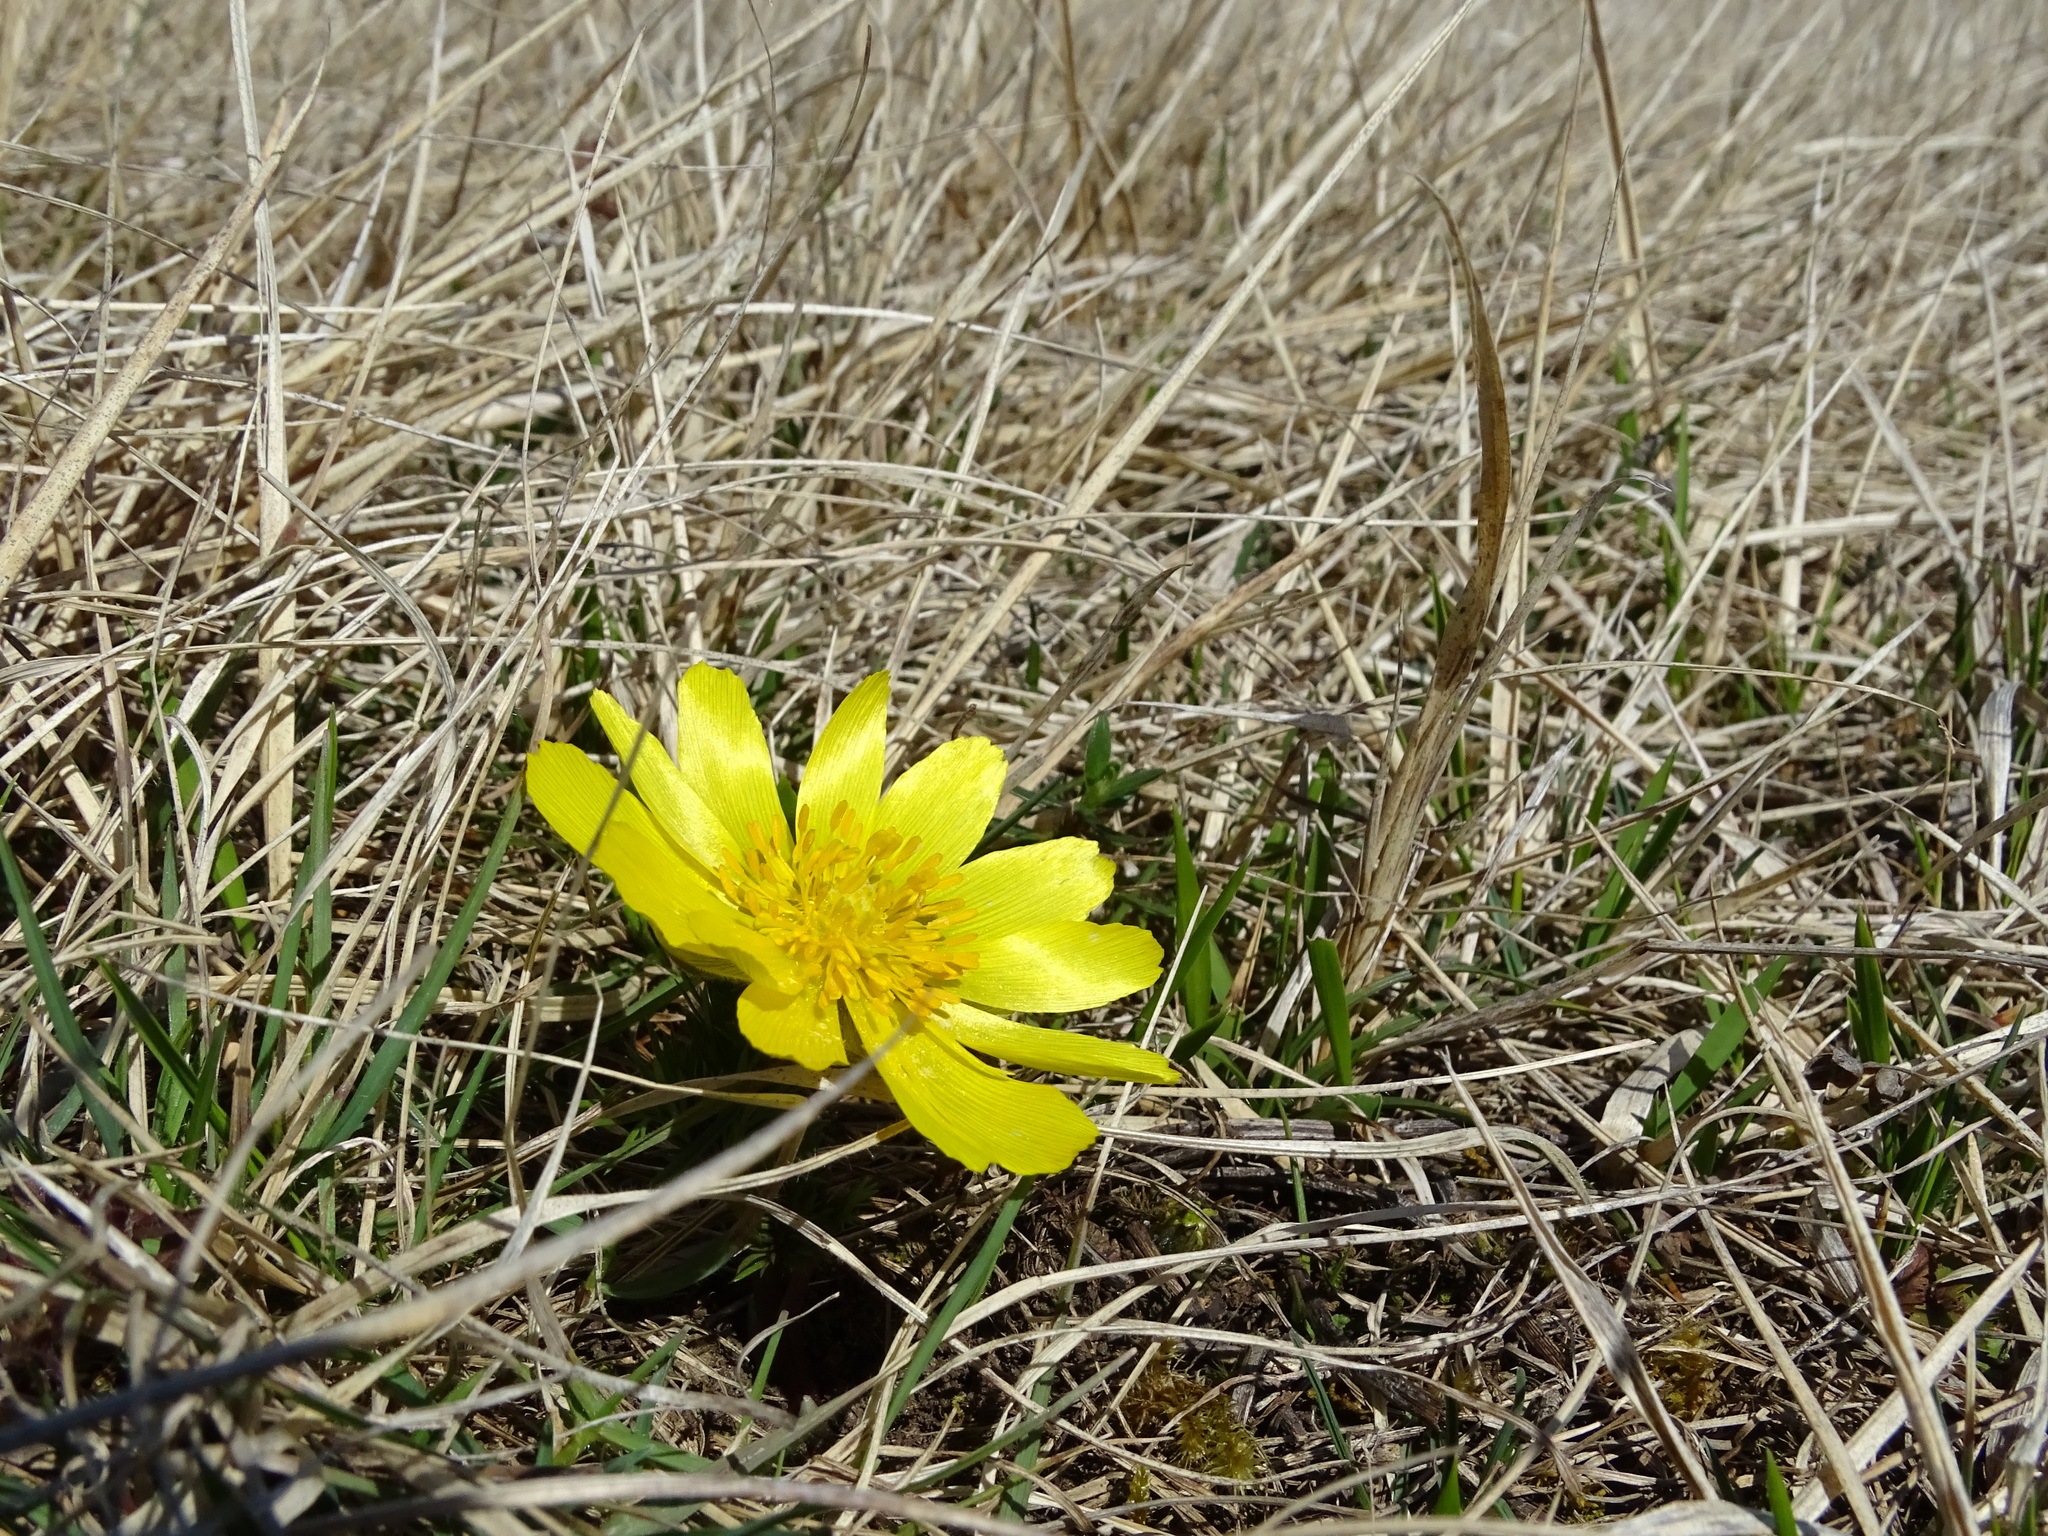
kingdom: Plantae
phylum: Tracheophyta
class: Magnoliopsida
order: Ranunculales
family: Ranunculaceae
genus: Adonis
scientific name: Adonis vernalis
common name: Yellow pheasants-eye
